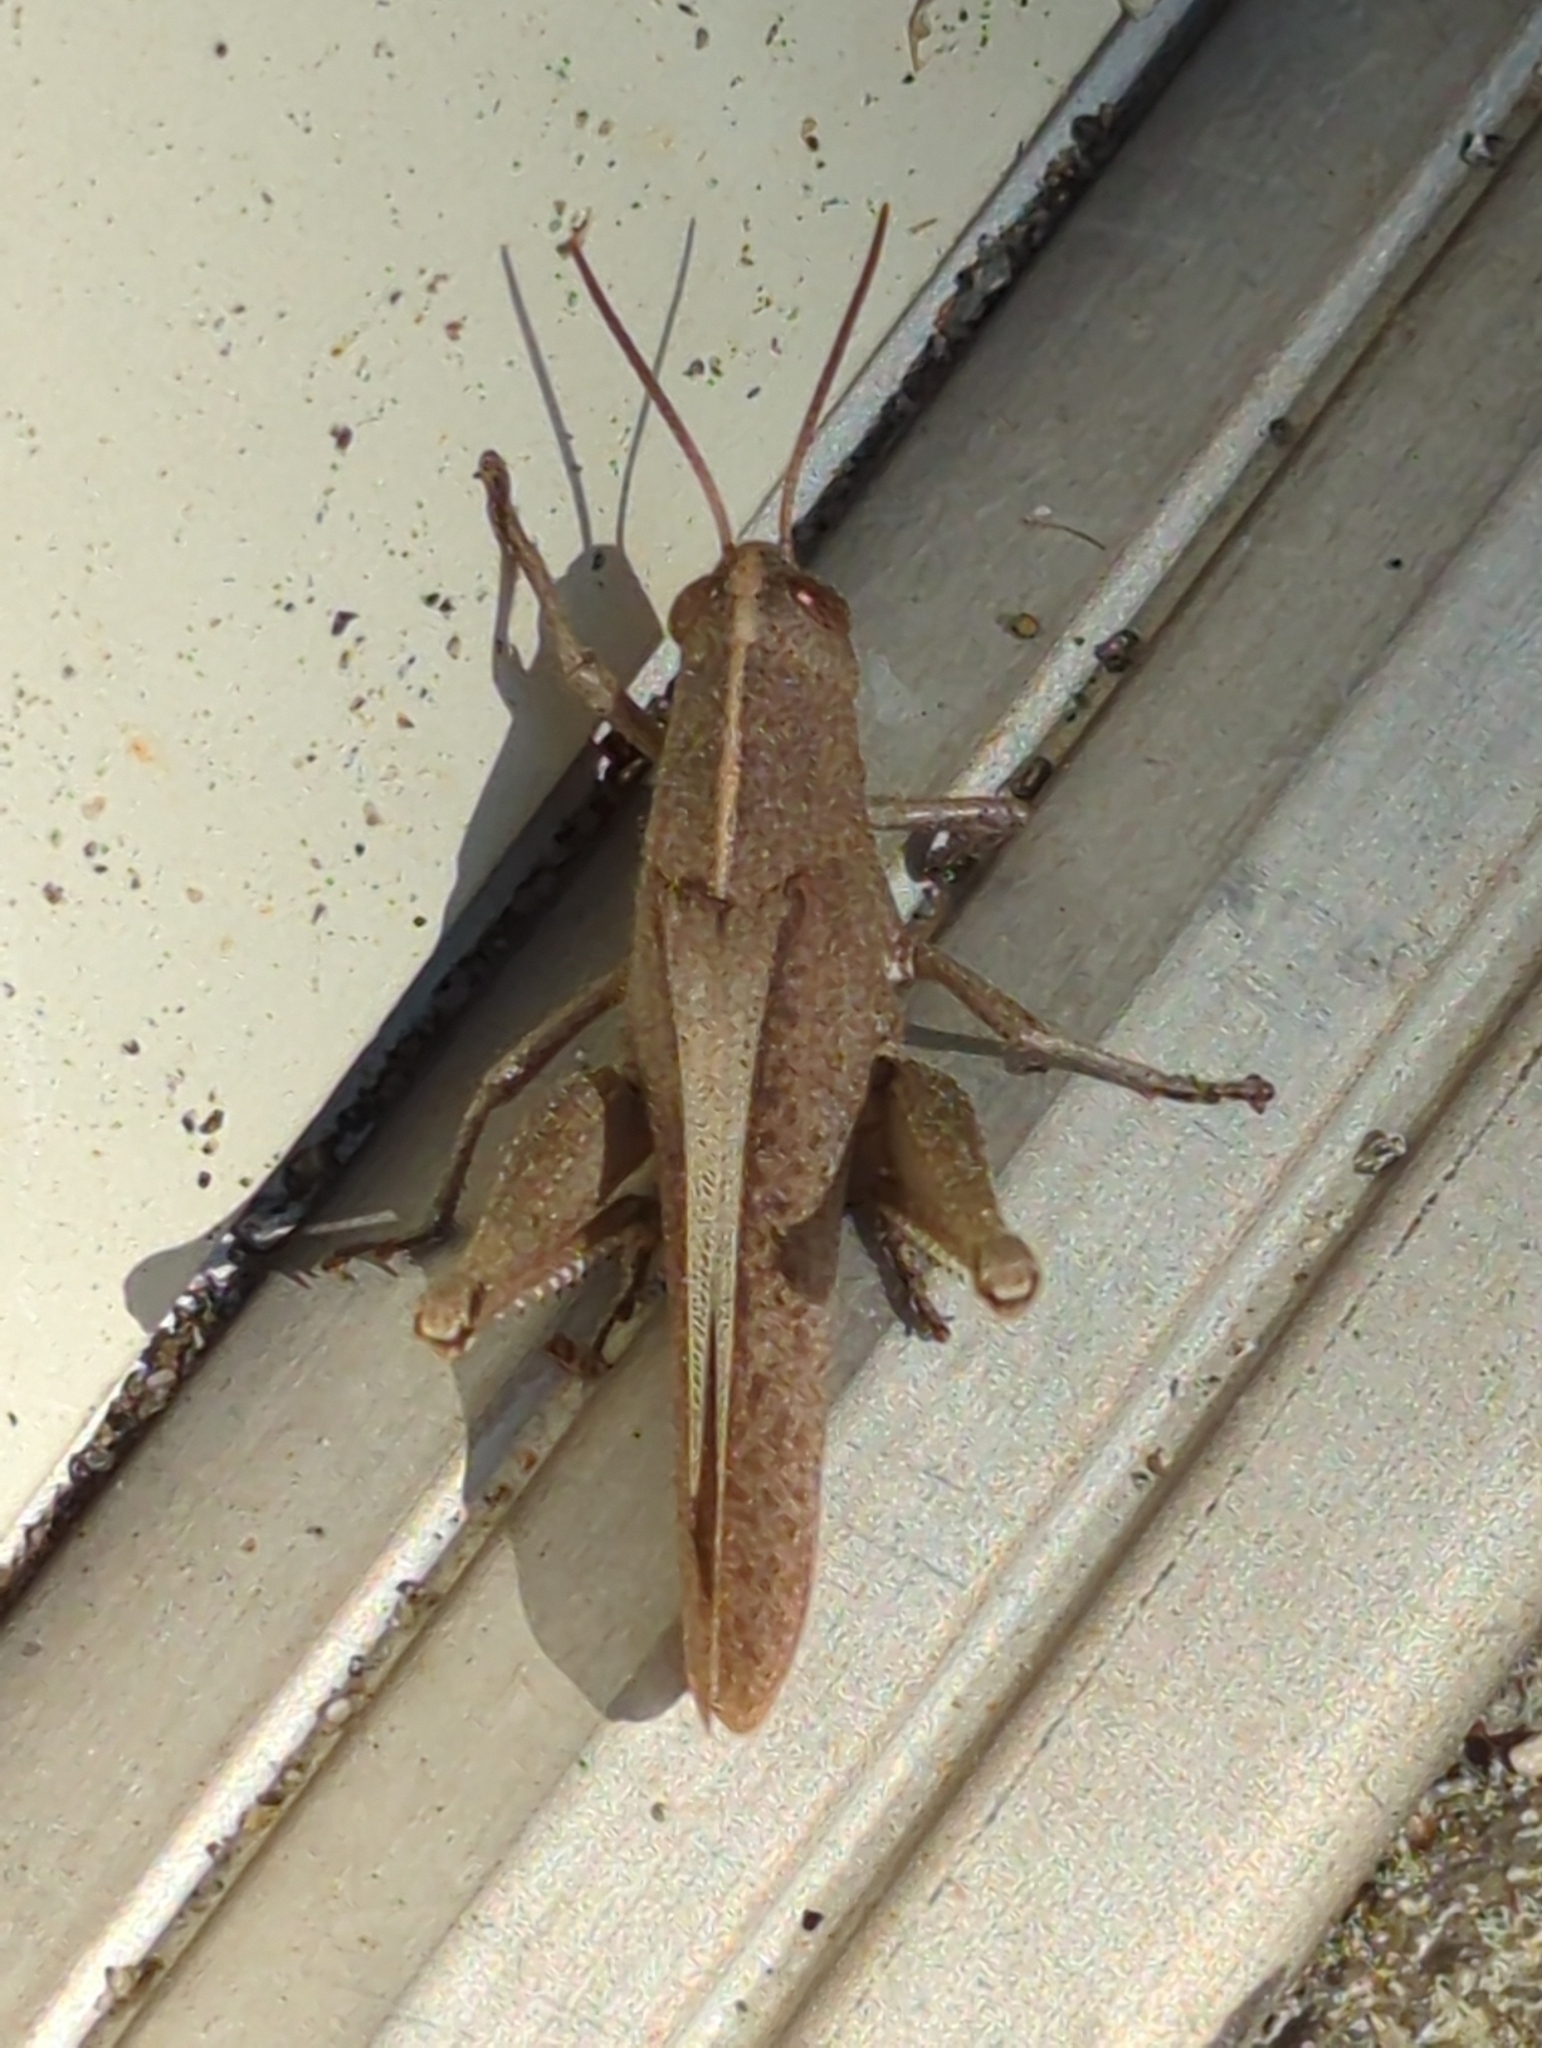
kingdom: Animalia
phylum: Arthropoda
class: Insecta
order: Orthoptera
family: Acrididae
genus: Schistocerca
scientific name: Schistocerca damnifica
